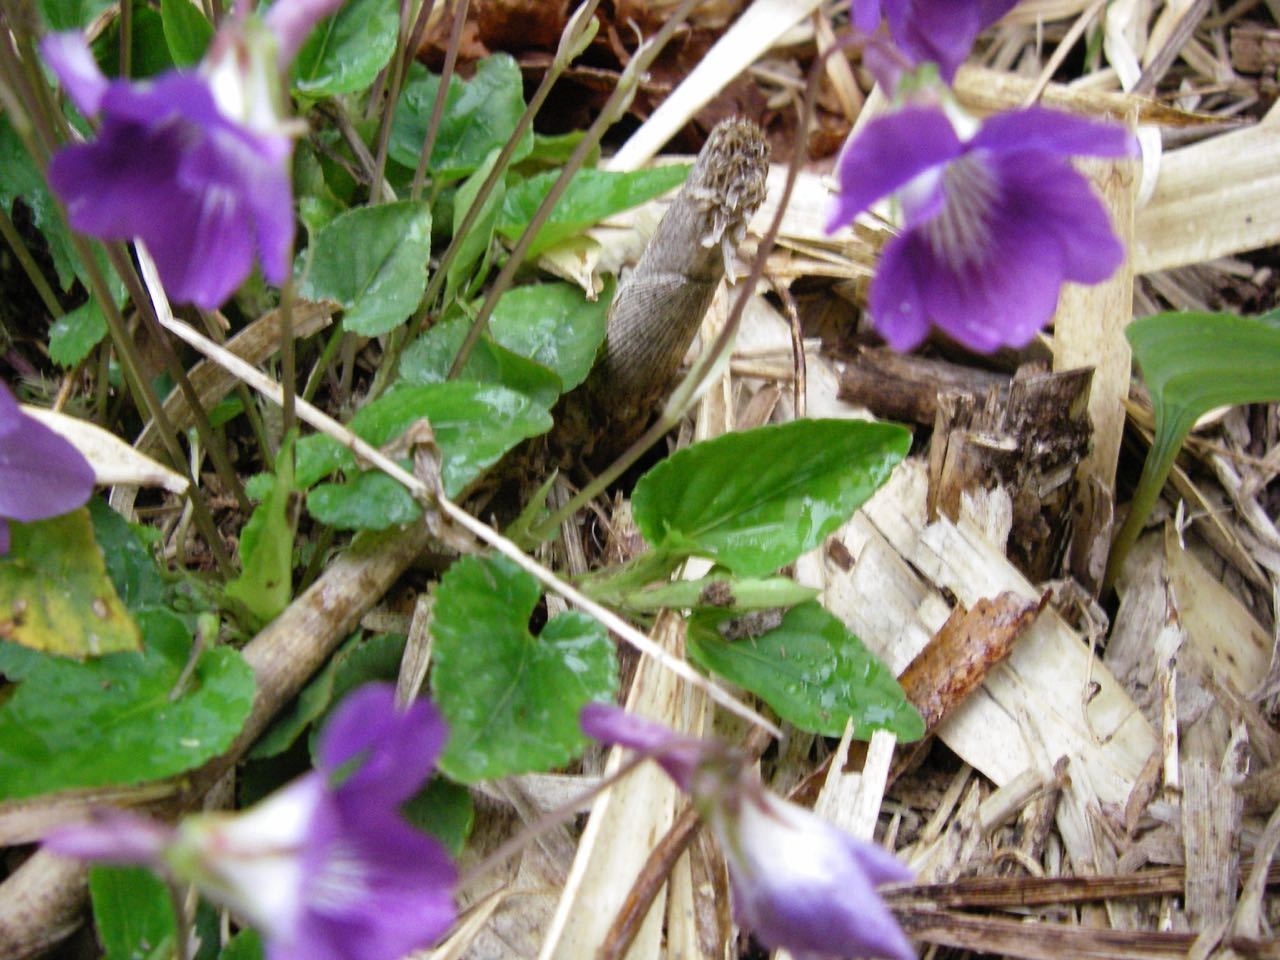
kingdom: Plantae
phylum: Tracheophyta
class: Magnoliopsida
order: Malpighiales
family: Violaceae
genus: Viola
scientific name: Viola obtusa
